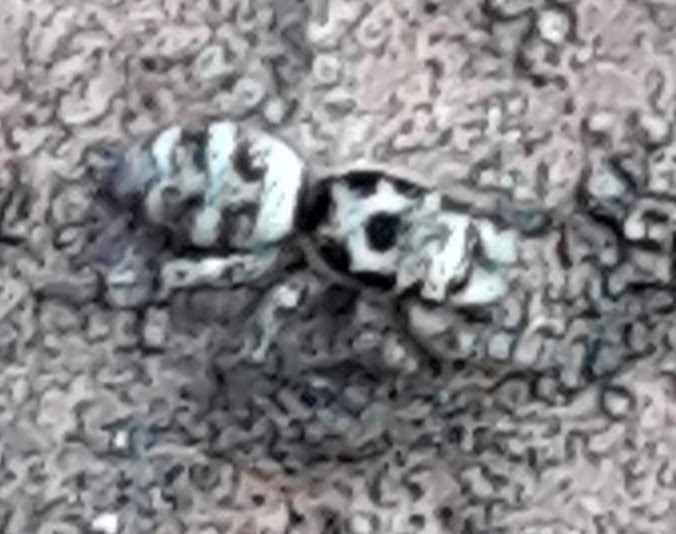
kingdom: Animalia
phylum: Arthropoda
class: Arachnida
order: Araneae
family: Salticidae
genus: Salticus
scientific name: Salticus scenicus
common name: Zebra jumper
